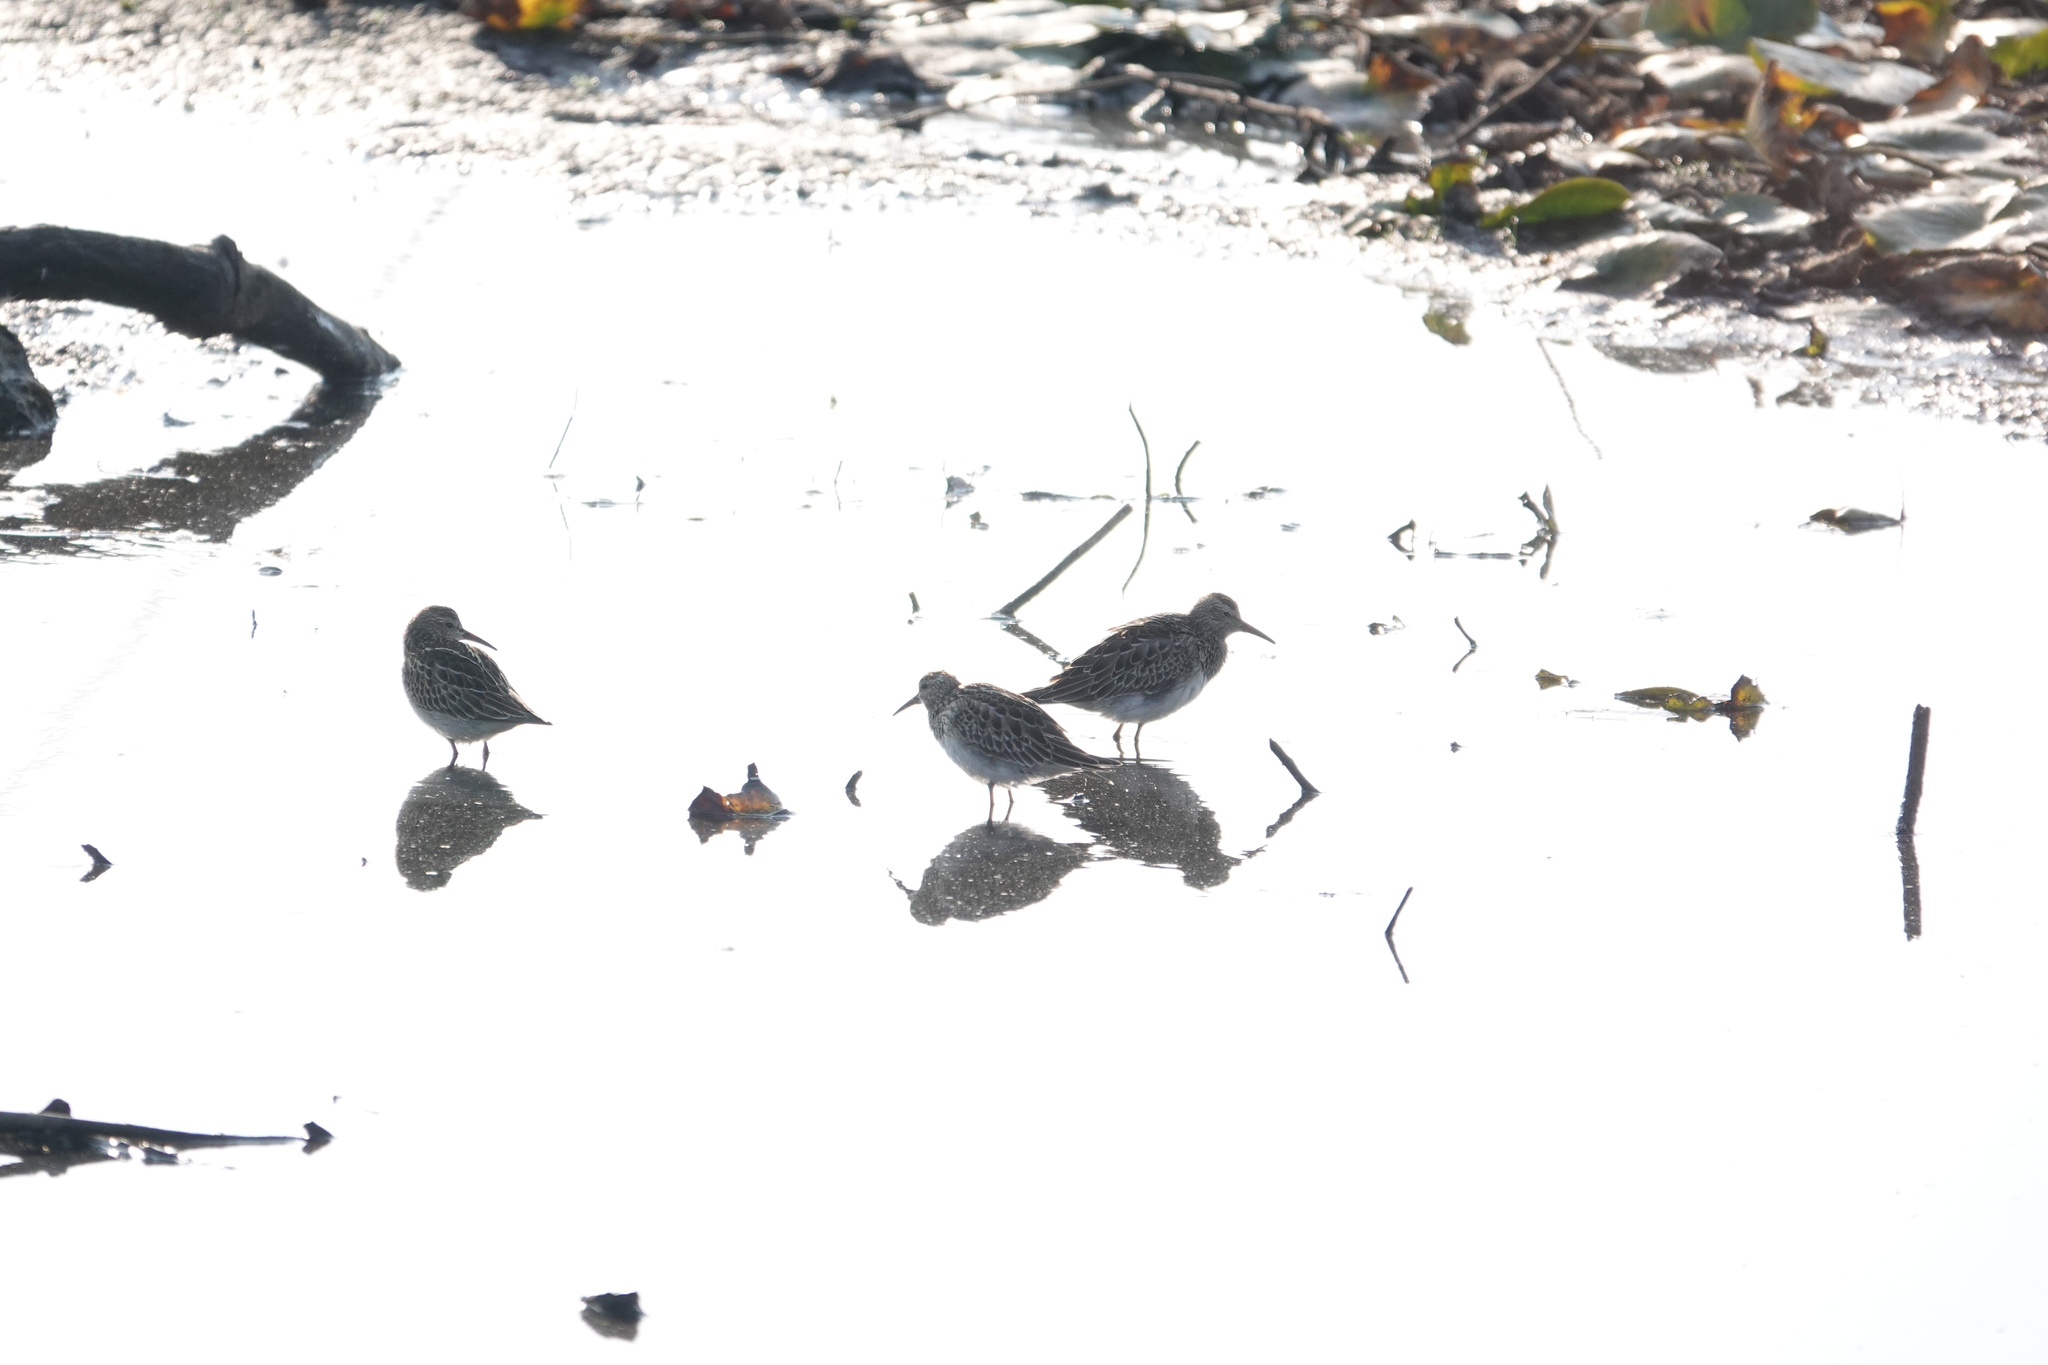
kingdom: Animalia
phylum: Chordata
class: Aves
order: Charadriiformes
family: Scolopacidae
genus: Calidris
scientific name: Calidris melanotos
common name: Pectoral sandpiper
